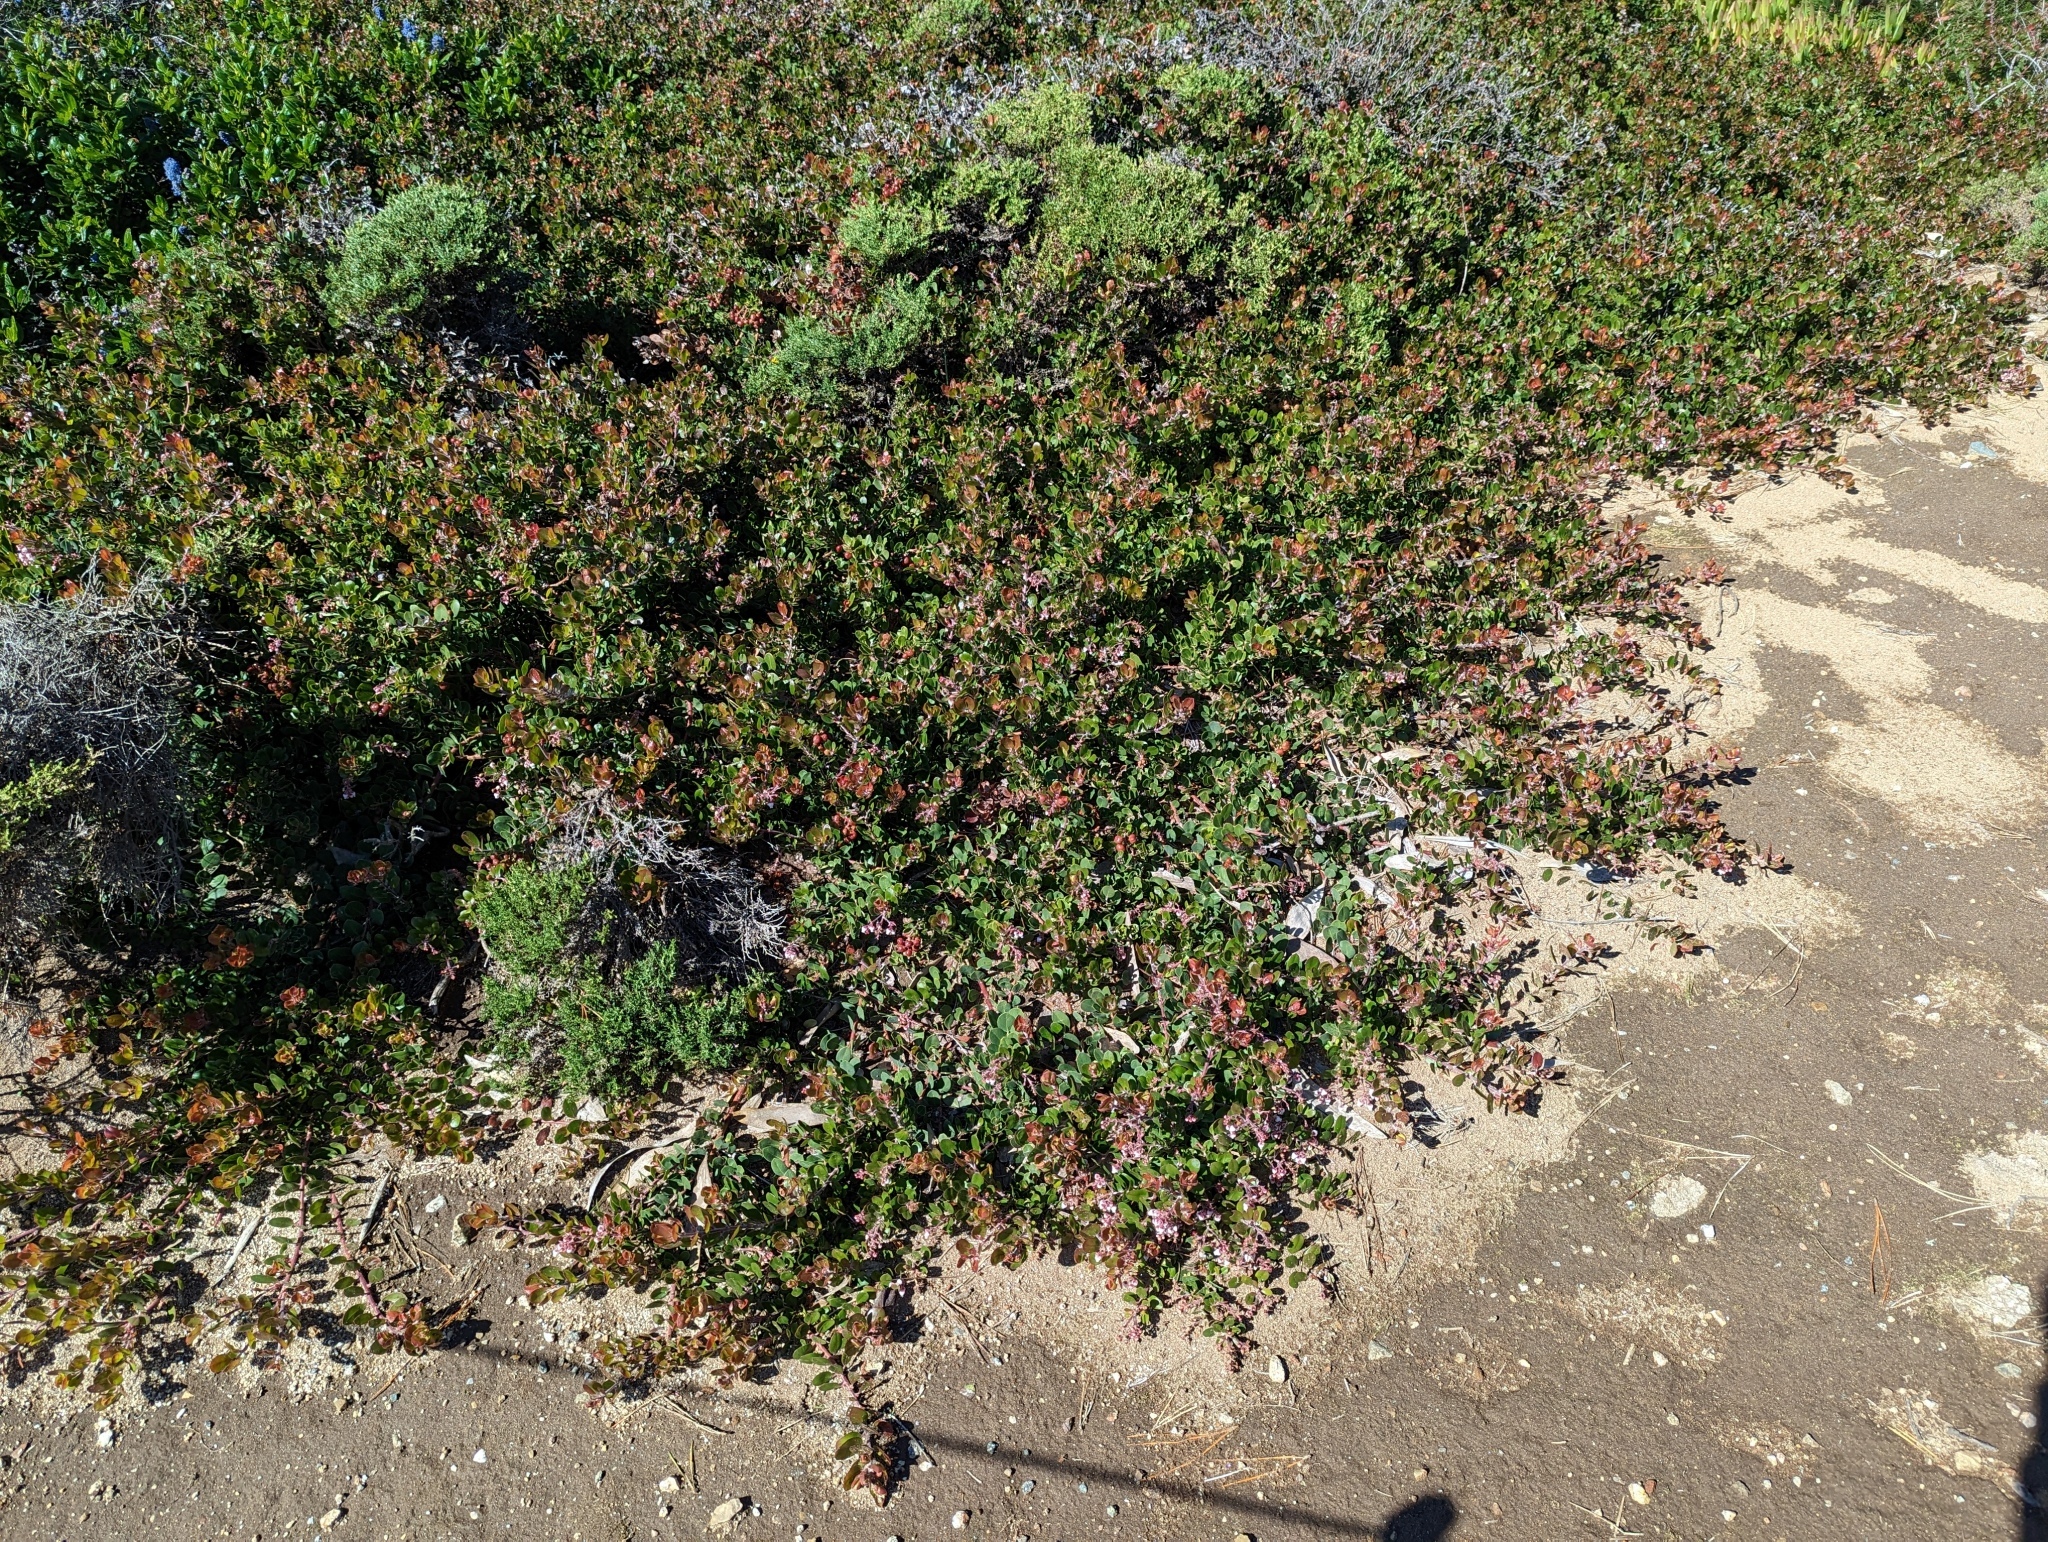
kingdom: Plantae
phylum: Tracheophyta
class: Magnoliopsida
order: Ericales
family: Ericaceae
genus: Arctostaphylos
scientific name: Arctostaphylos edmundsii
